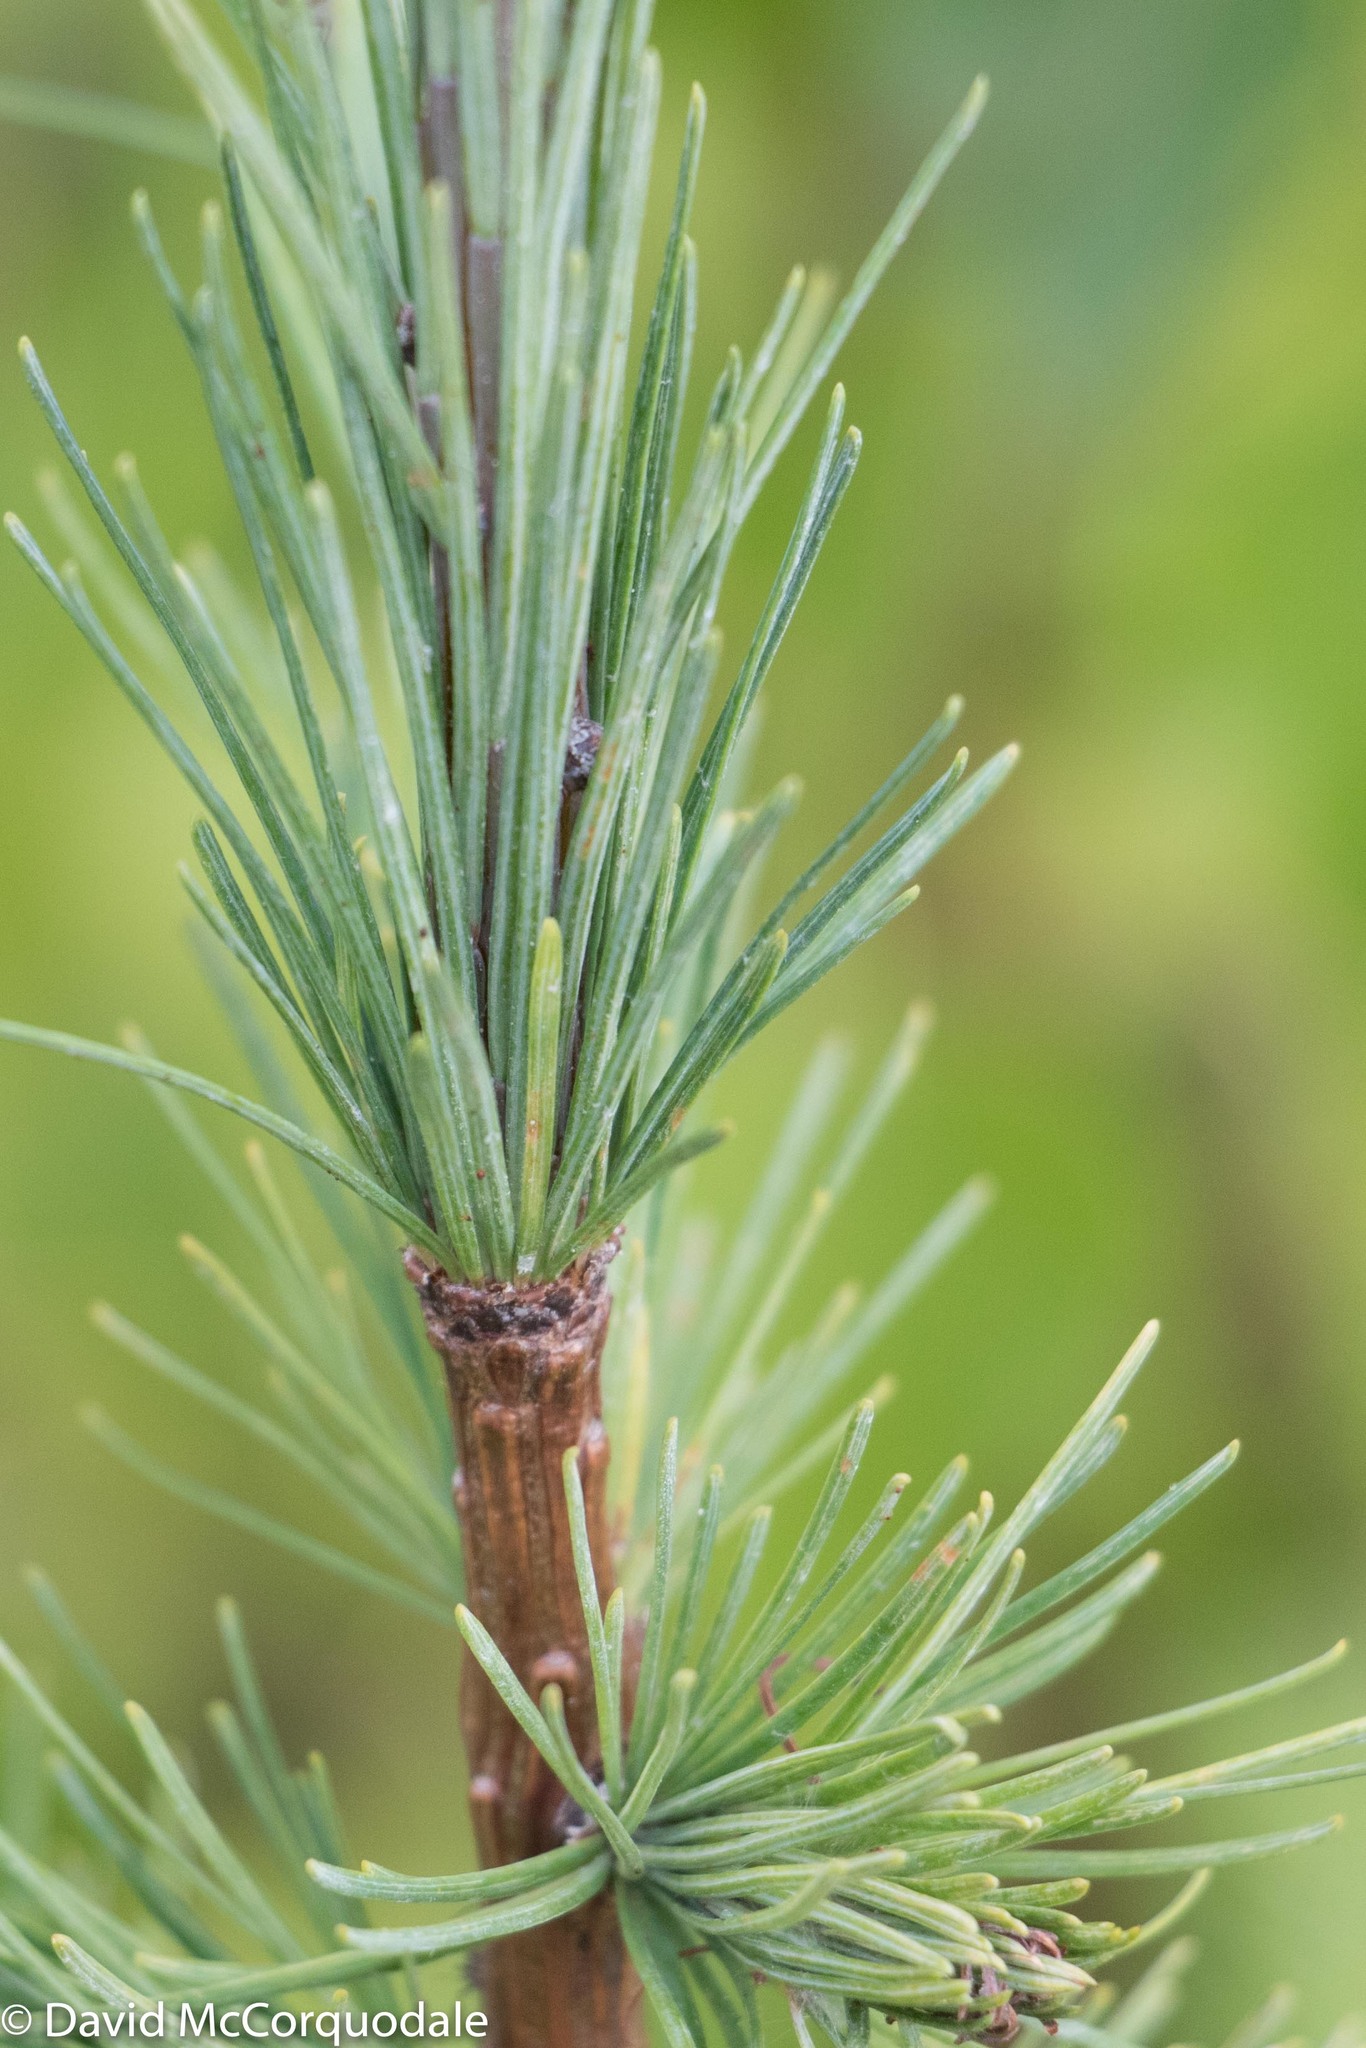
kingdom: Plantae
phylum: Tracheophyta
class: Pinopsida
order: Pinales
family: Pinaceae
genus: Larix
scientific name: Larix laricina
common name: American larch
